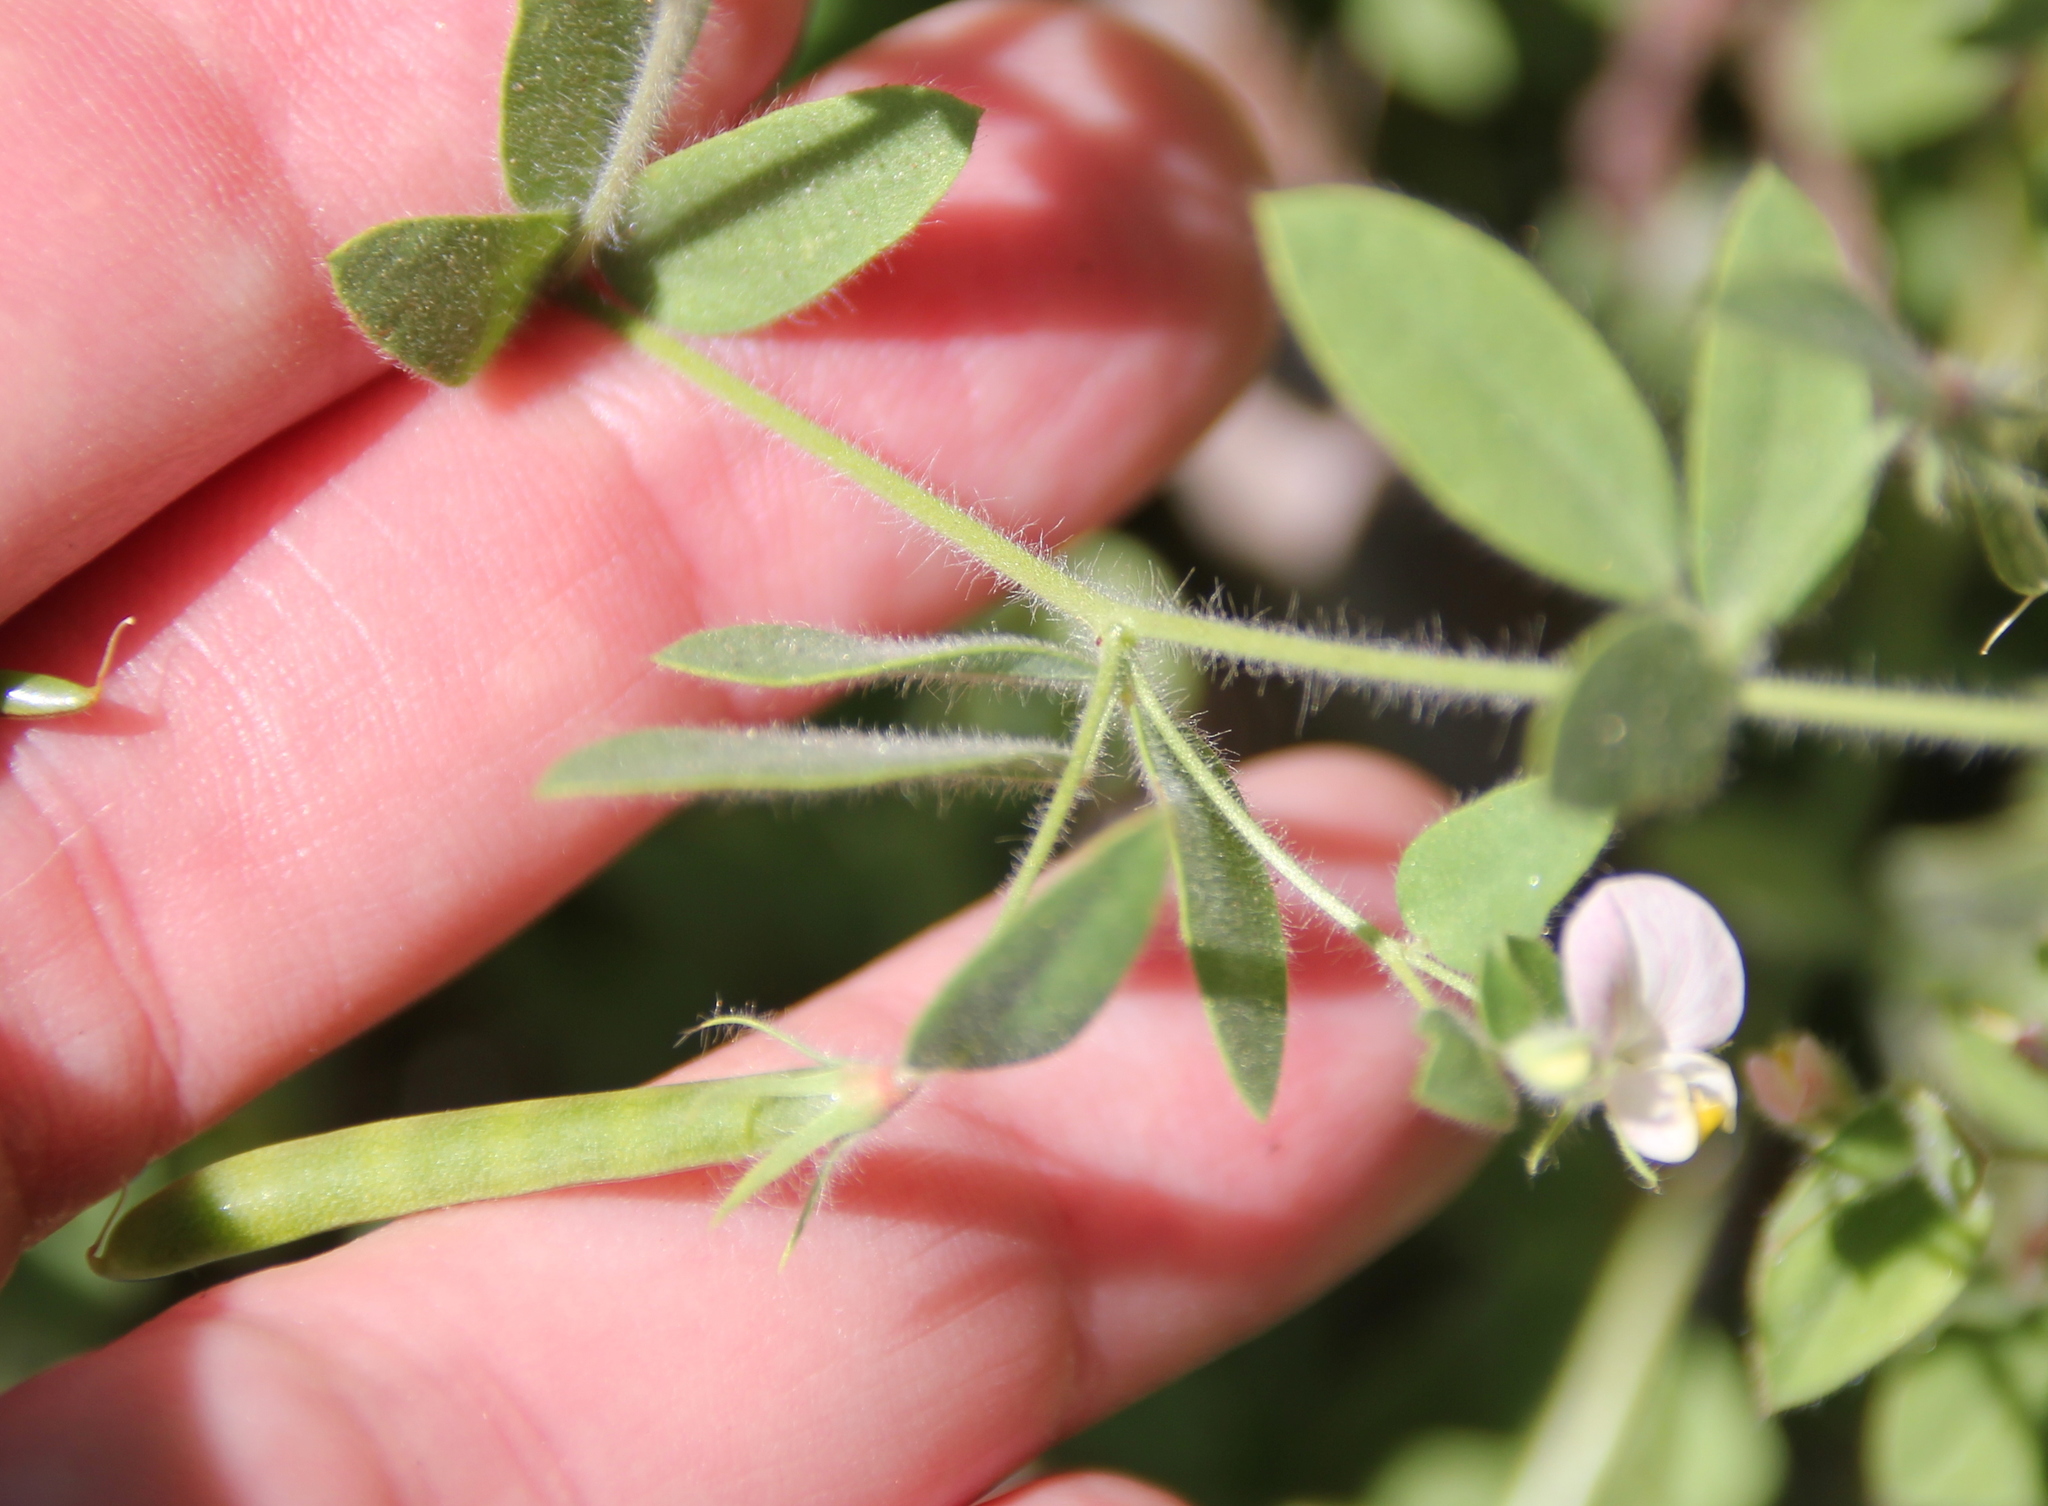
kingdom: Plantae
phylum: Tracheophyta
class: Magnoliopsida
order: Fabales
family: Fabaceae
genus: Acmispon
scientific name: Acmispon americanus
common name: American bird's-foot trefoil
